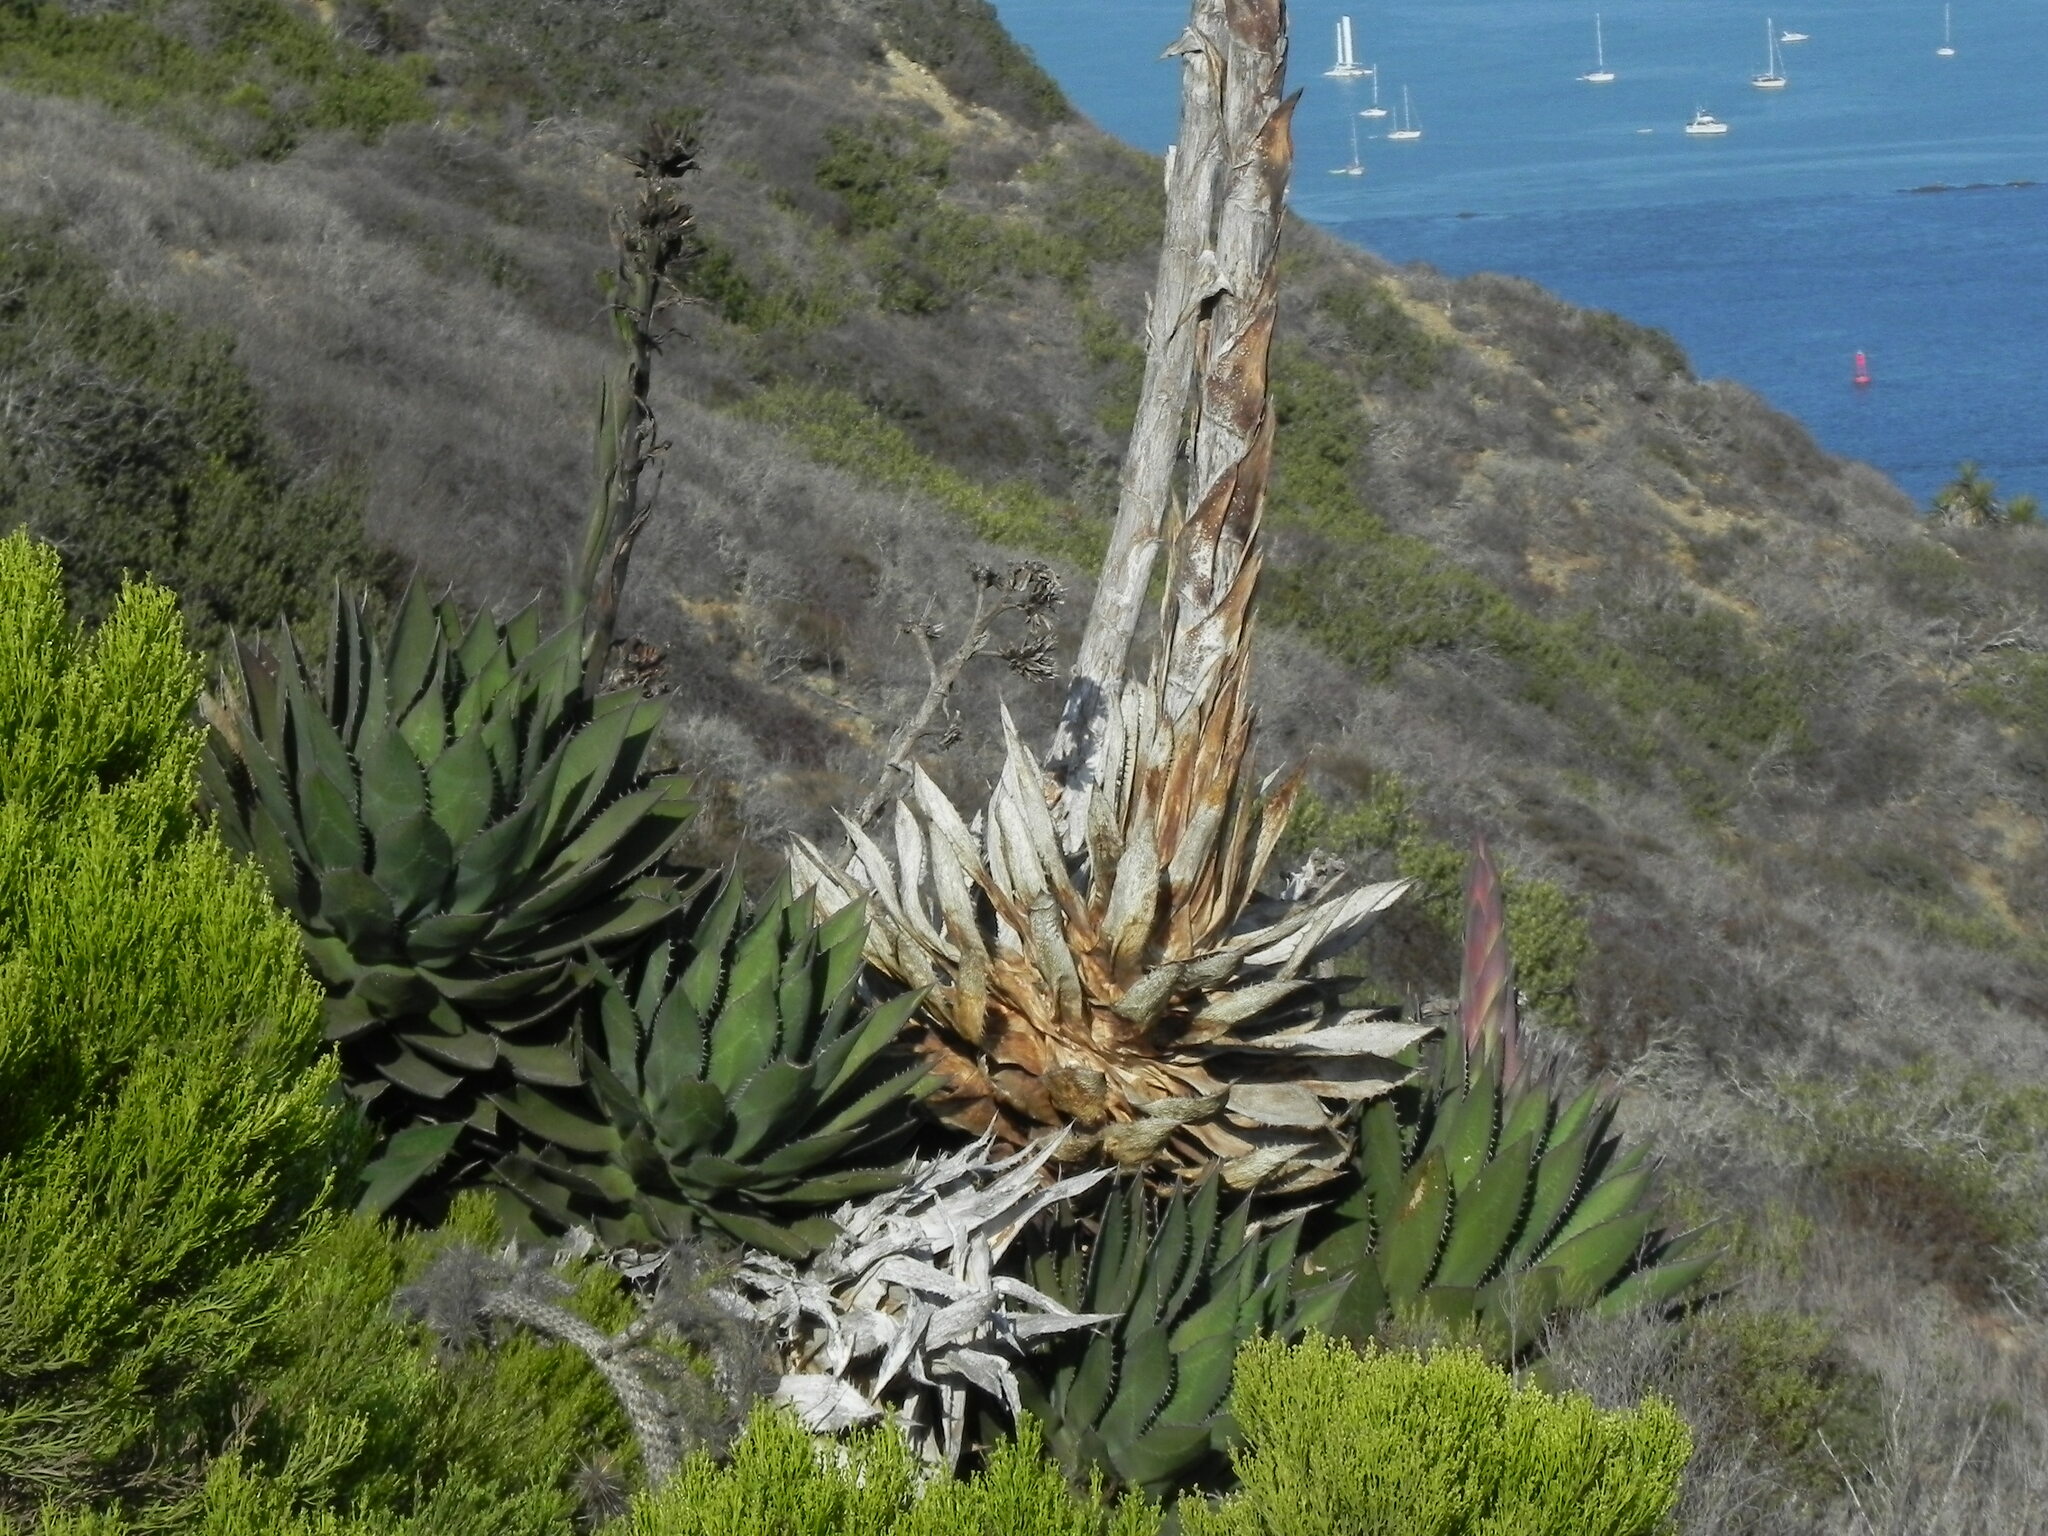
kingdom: Plantae
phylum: Tracheophyta
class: Liliopsida
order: Asparagales
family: Asparagaceae
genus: Agave
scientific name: Agave shawii
